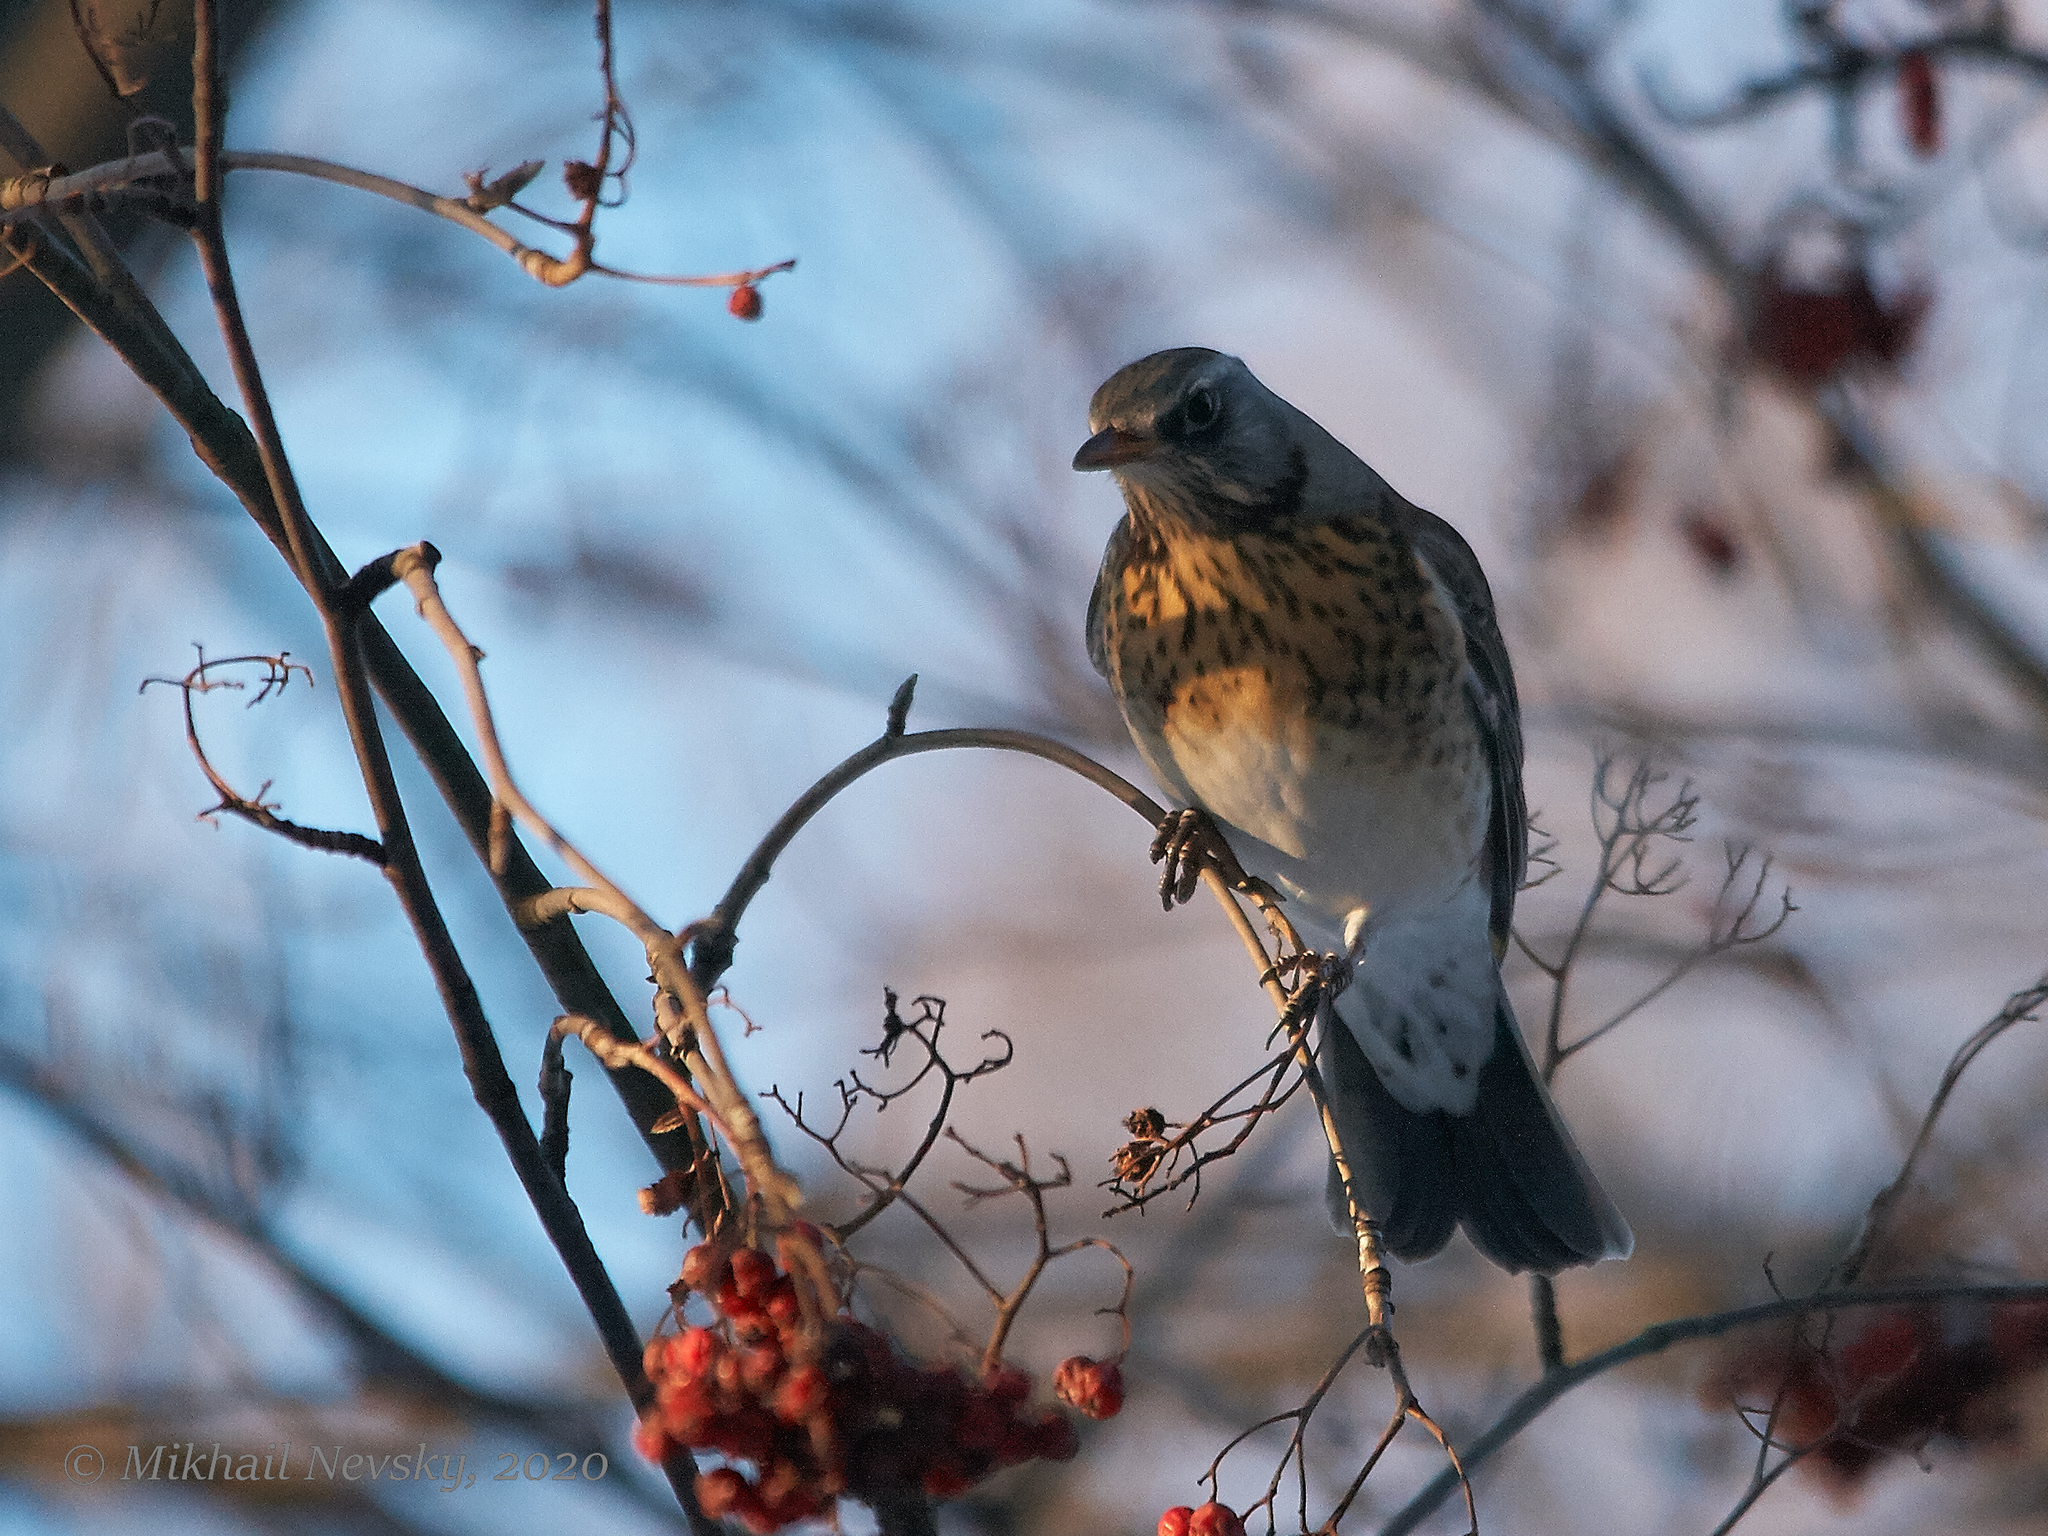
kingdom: Animalia
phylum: Chordata
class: Aves
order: Passeriformes
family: Turdidae
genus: Turdus
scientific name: Turdus pilaris
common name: Fieldfare
